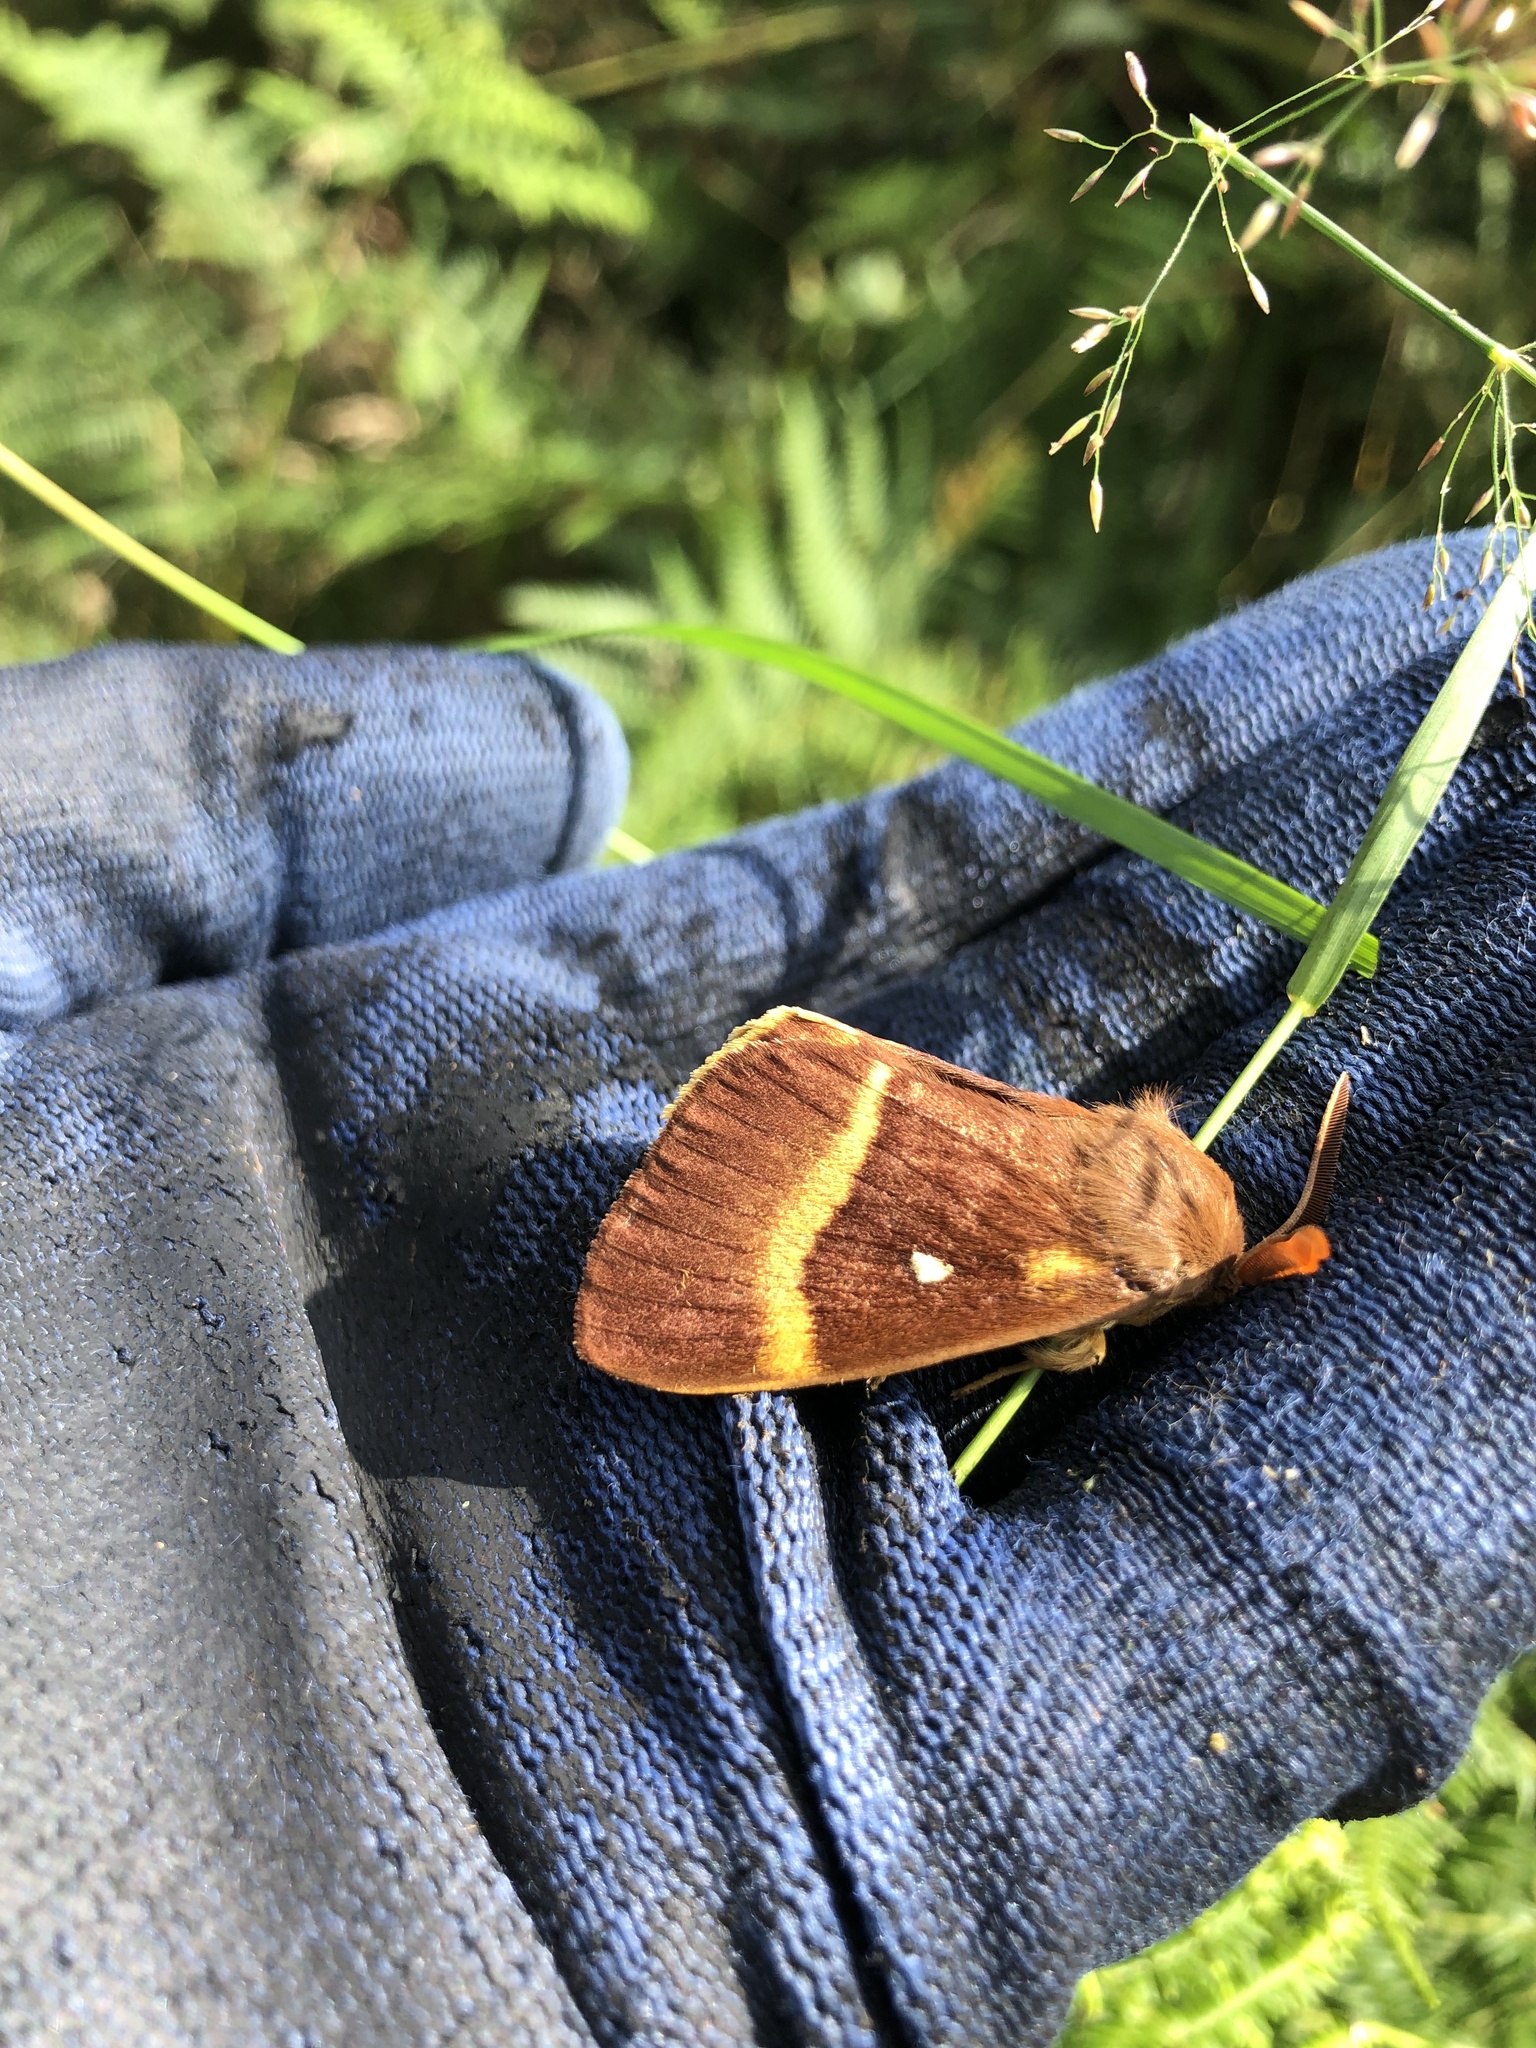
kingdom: Animalia
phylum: Arthropoda
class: Insecta
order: Lepidoptera
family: Lasiocampidae
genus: Lasiocampa
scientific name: Lasiocampa quercus
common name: Oak eggar
